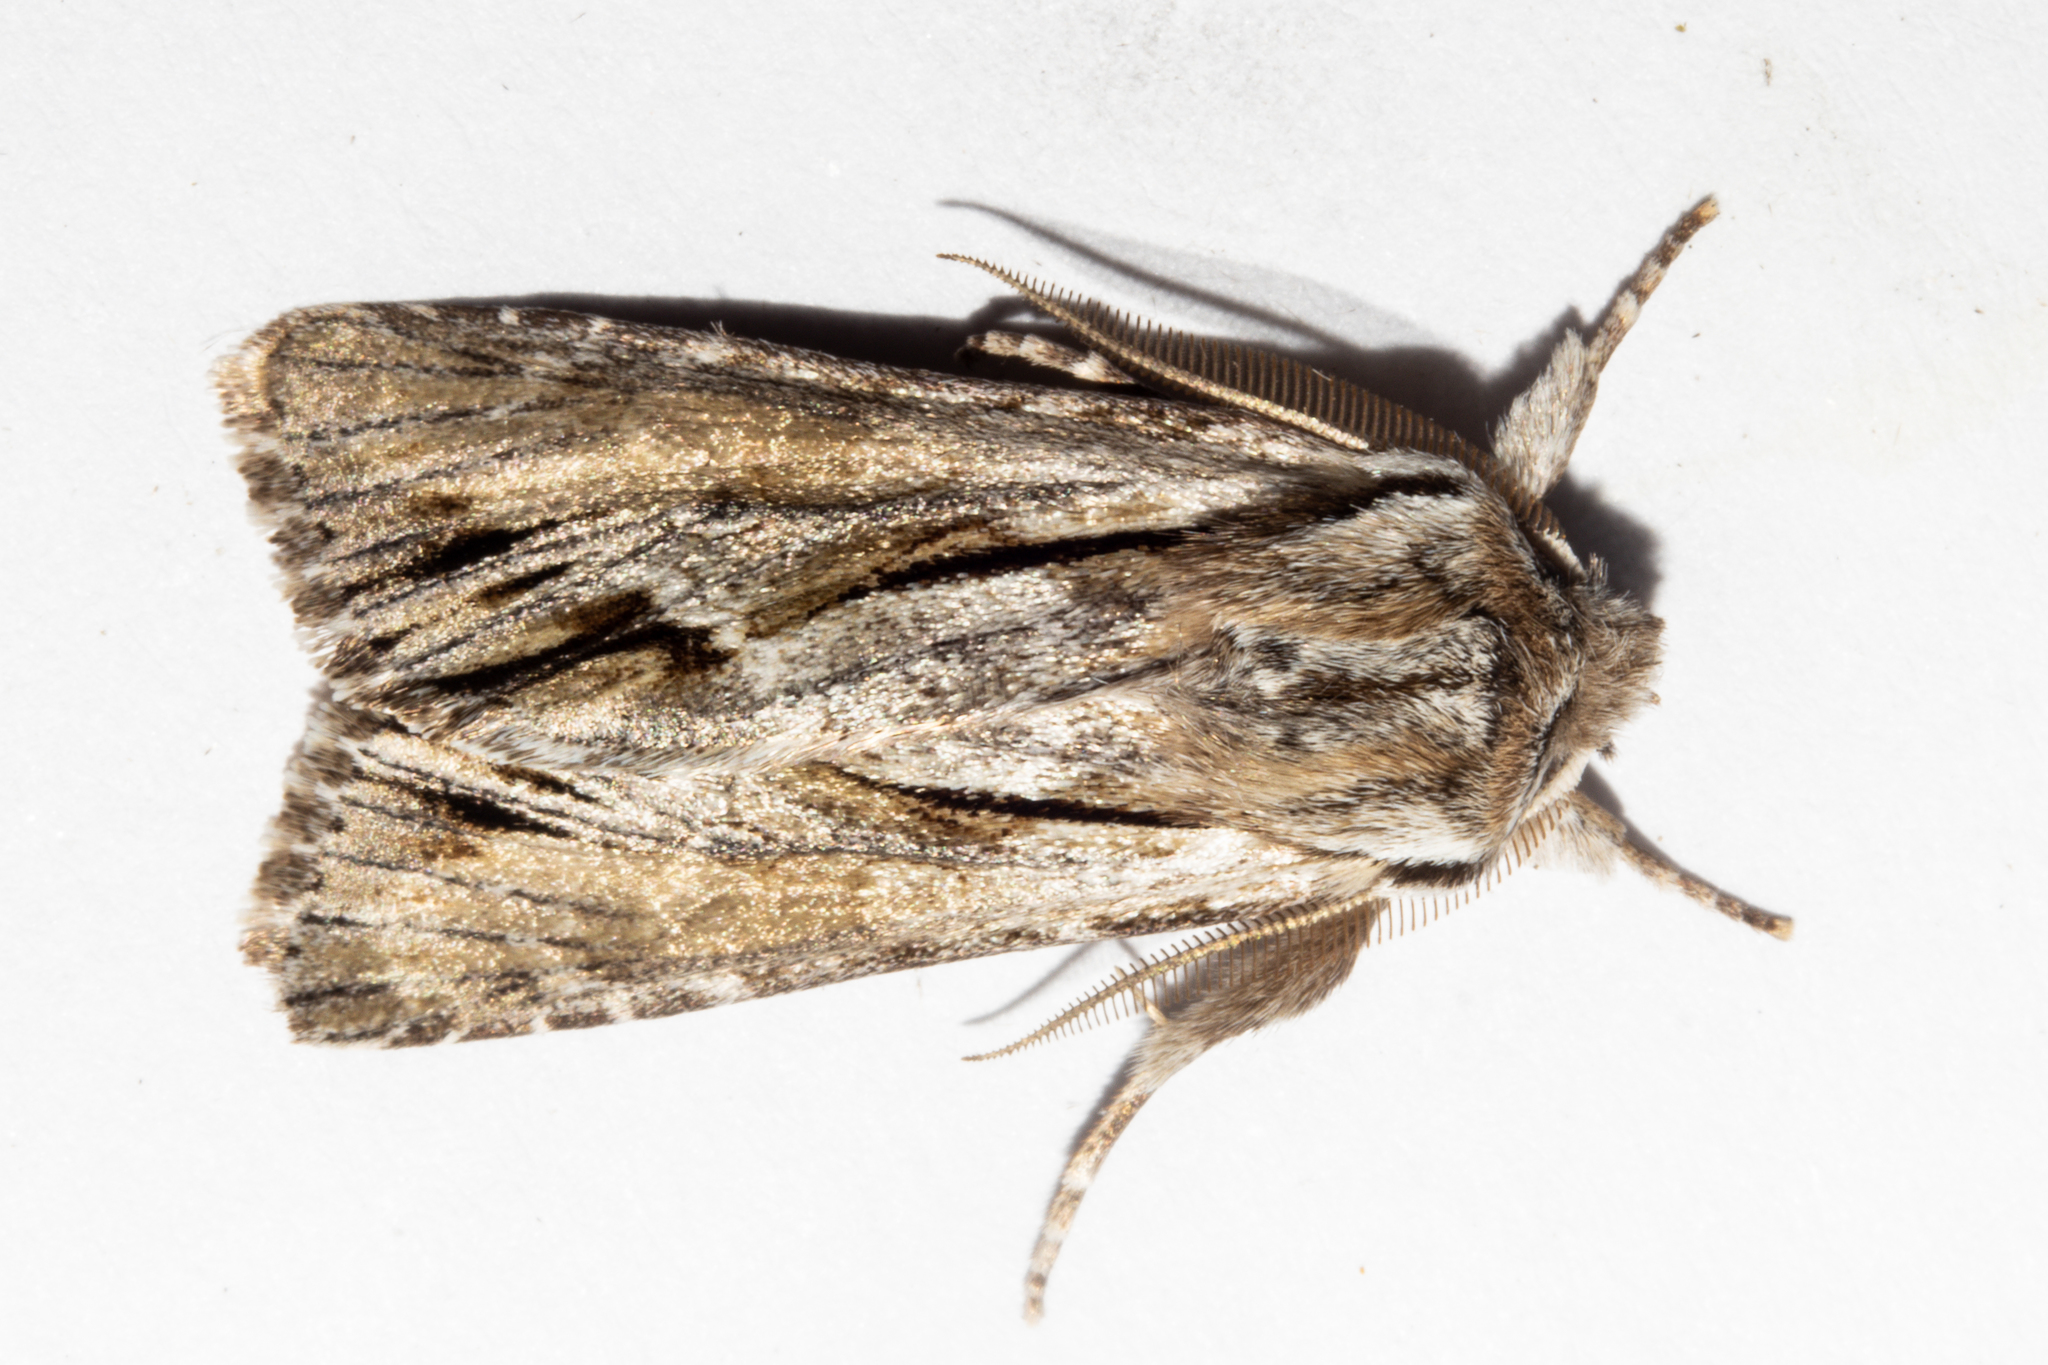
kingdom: Animalia
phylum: Arthropoda
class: Insecta
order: Lepidoptera
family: Noctuidae
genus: Ichneutica
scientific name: Ichneutica
